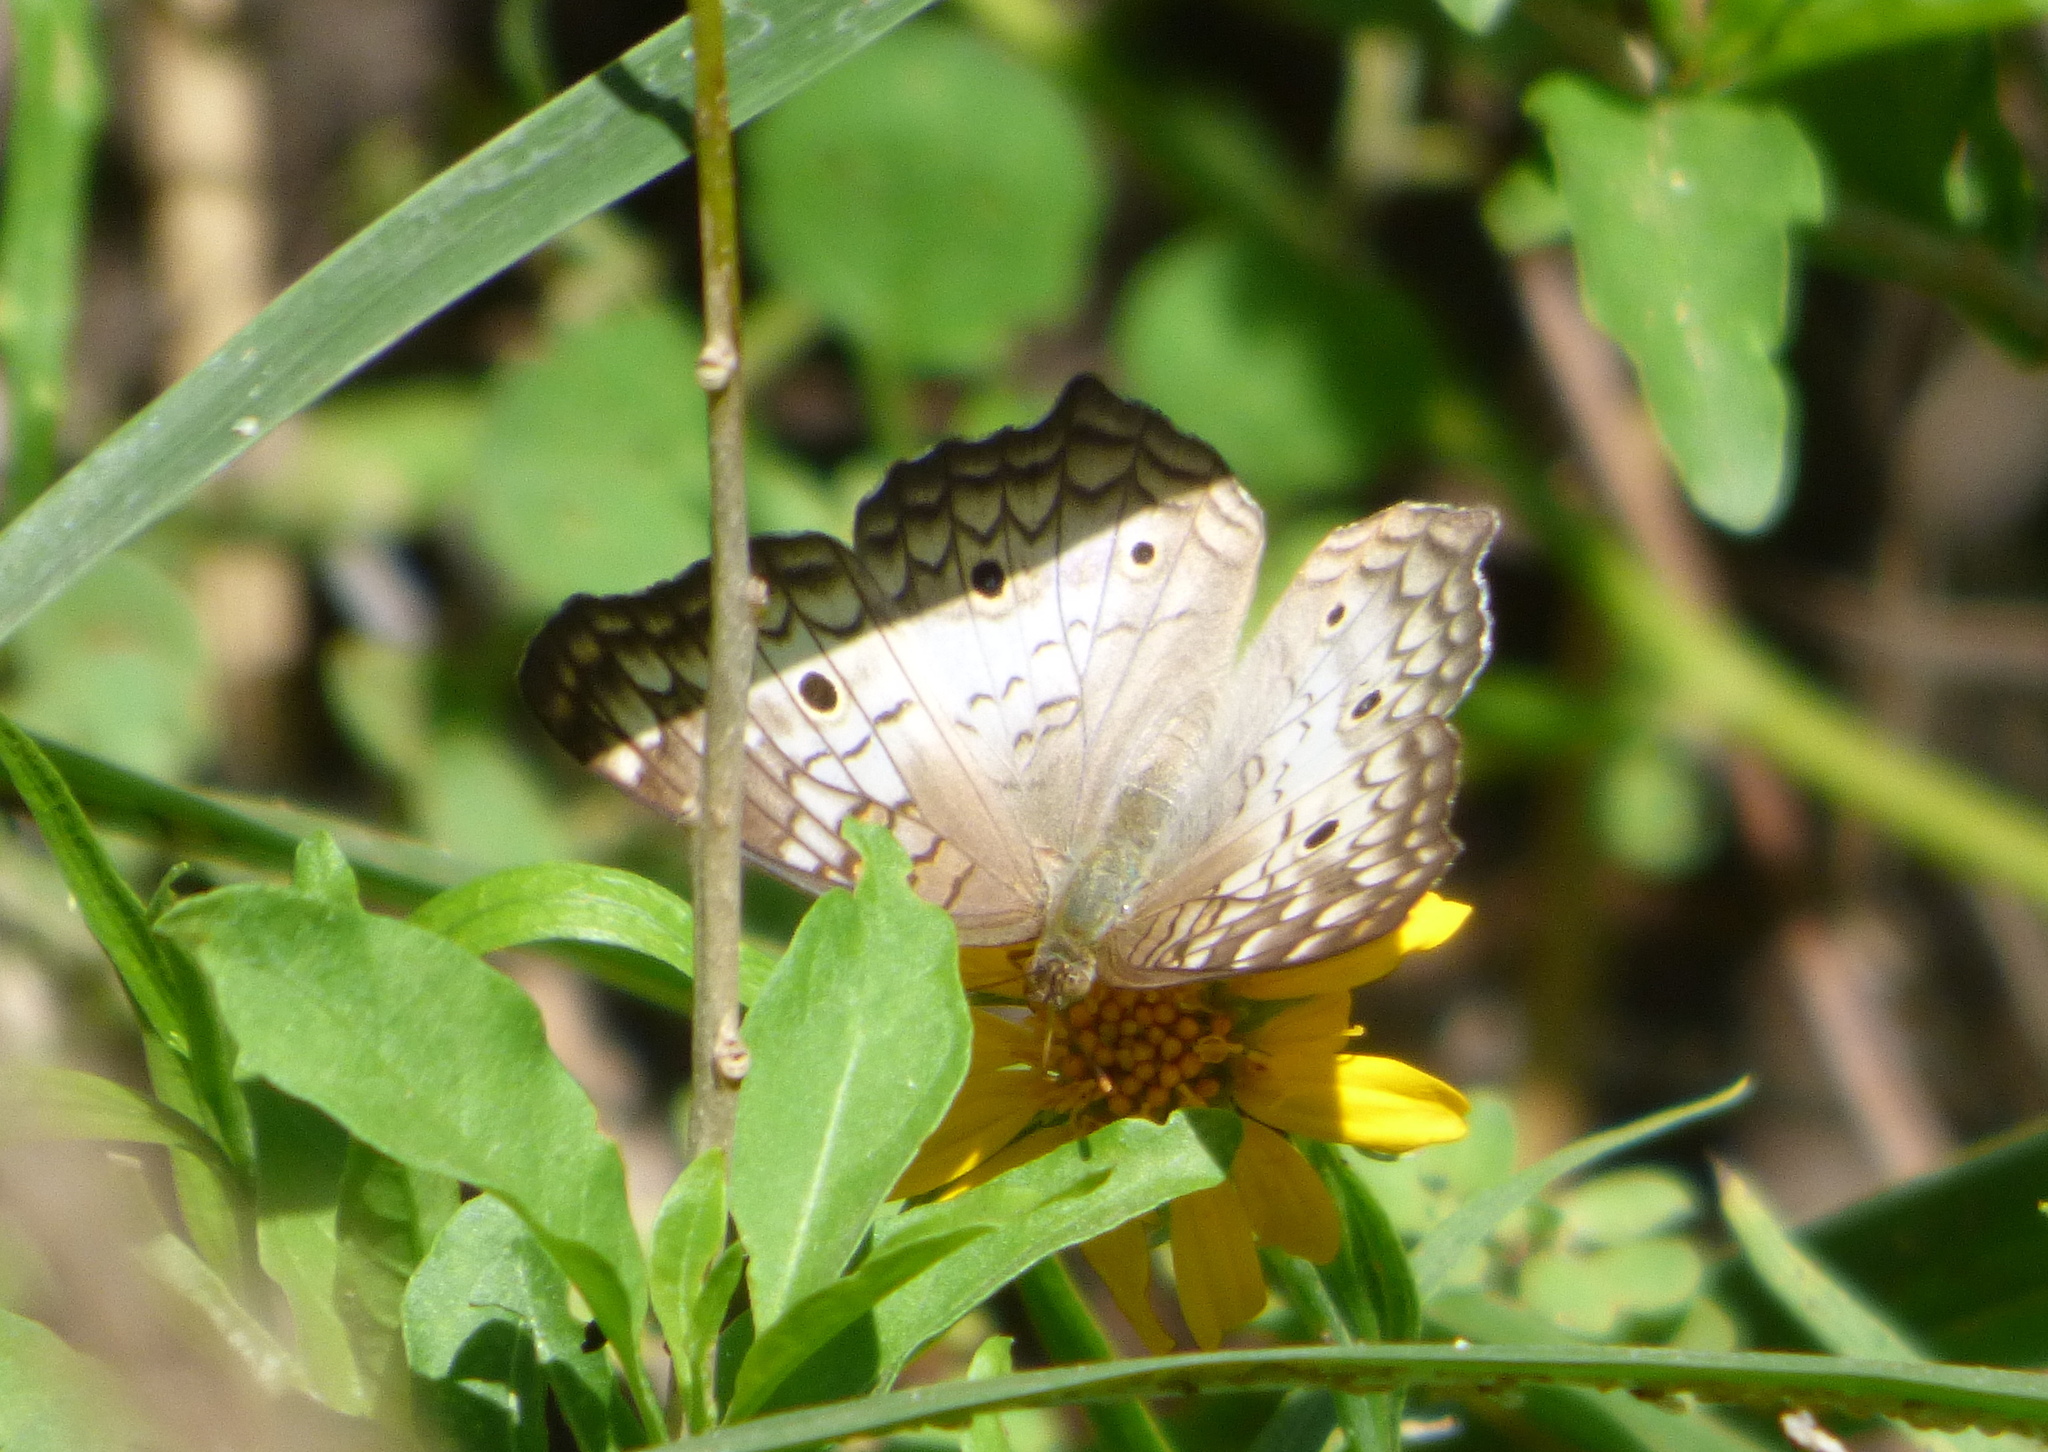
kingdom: Animalia
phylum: Arthropoda
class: Insecta
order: Lepidoptera
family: Nymphalidae
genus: Anartia
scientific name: Anartia jatrophae
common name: White peacock
